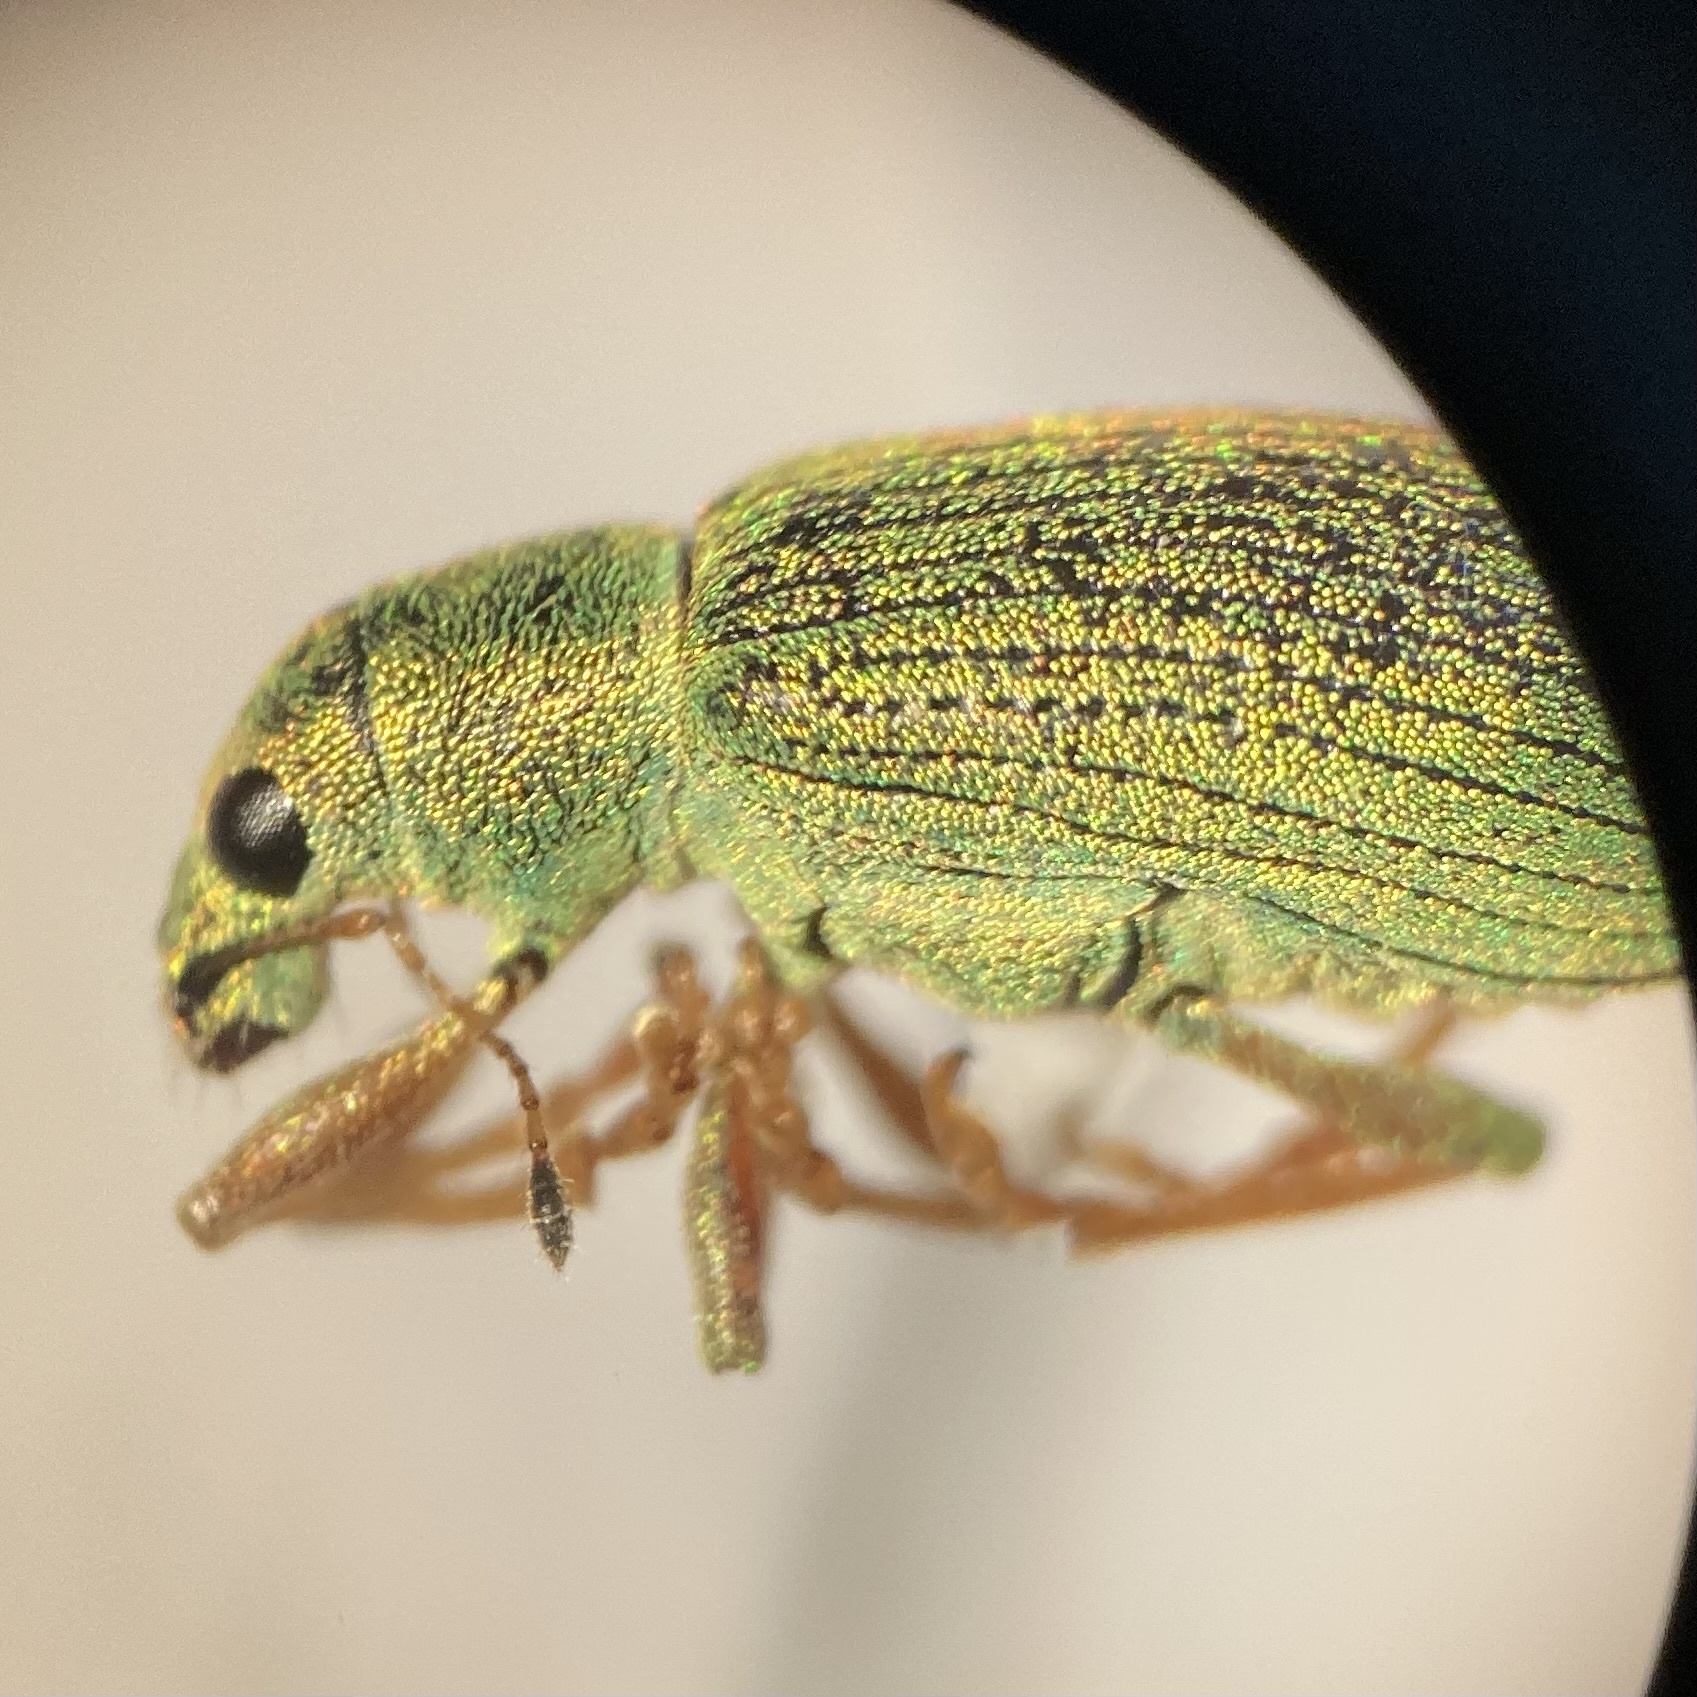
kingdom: Animalia
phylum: Arthropoda
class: Insecta
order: Coleoptera
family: Curculionidae
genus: Polydrusus
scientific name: Polydrusus formosus
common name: Weevil
